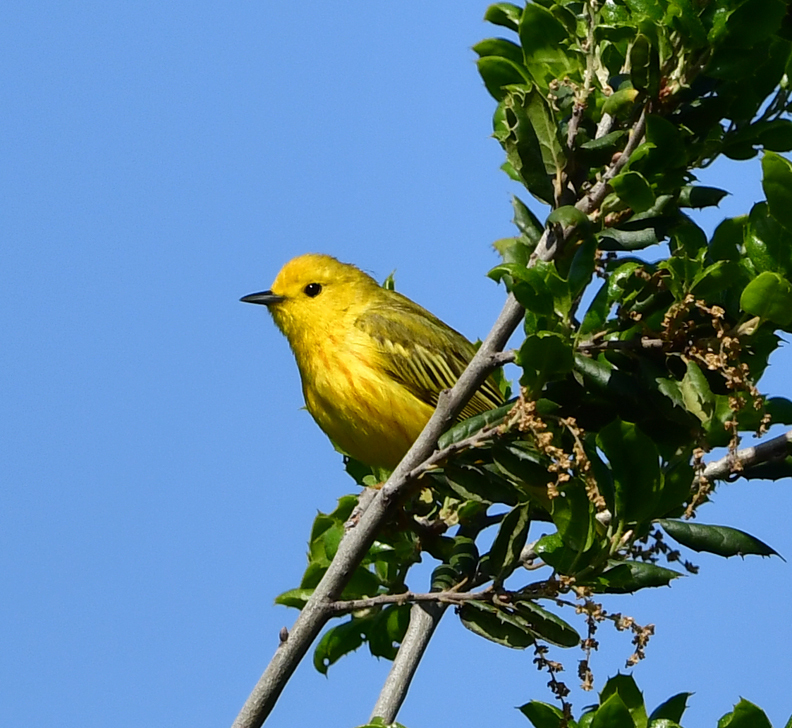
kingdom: Animalia
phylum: Chordata
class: Aves
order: Passeriformes
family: Parulidae
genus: Setophaga
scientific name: Setophaga petechia
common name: Yellow warbler
